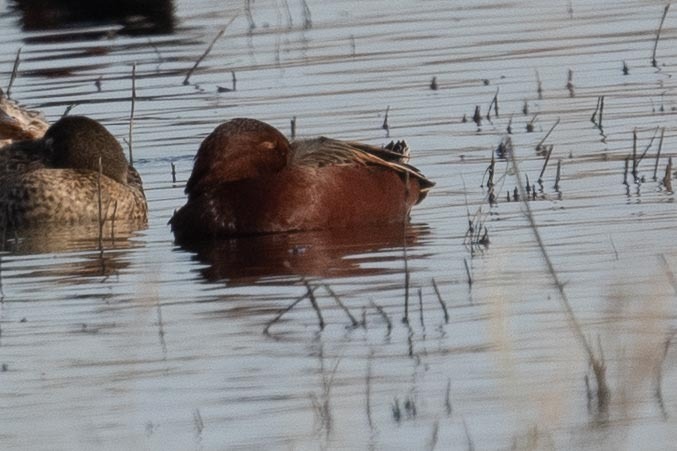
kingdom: Animalia
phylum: Chordata
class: Aves
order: Anseriformes
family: Anatidae
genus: Spatula
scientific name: Spatula cyanoptera
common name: Cinnamon teal
